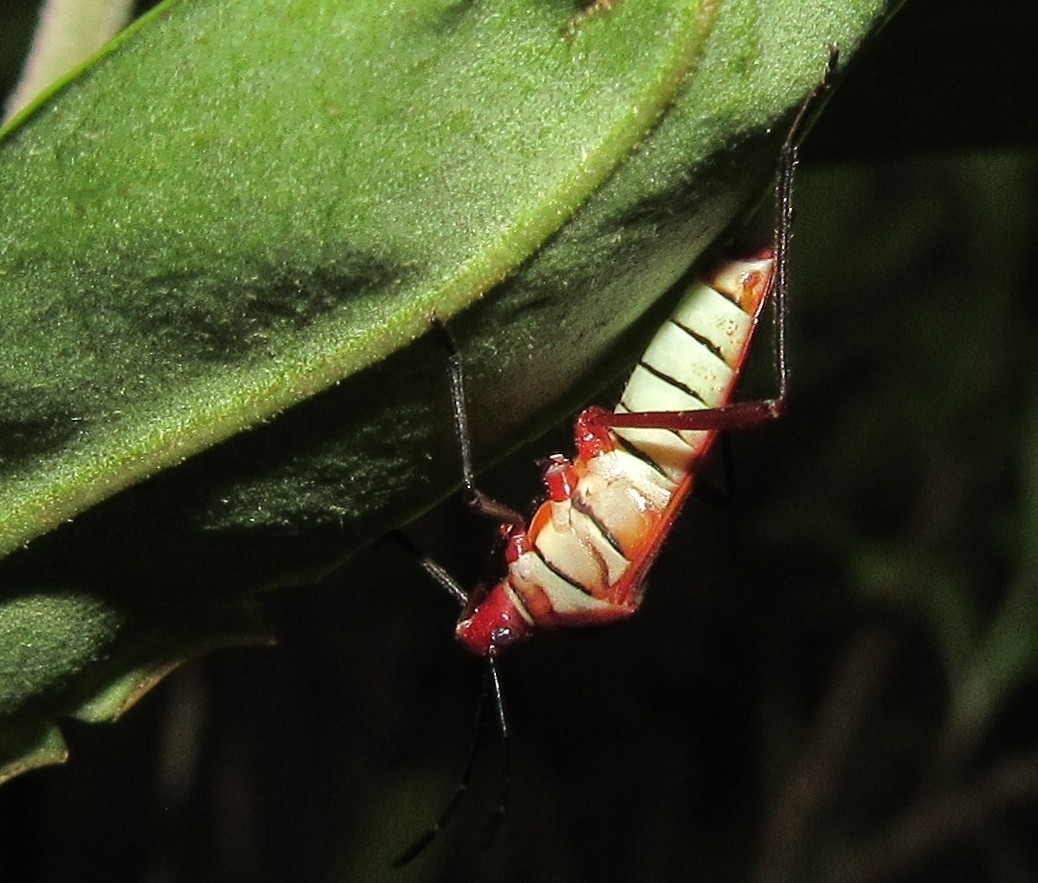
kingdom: Animalia
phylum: Arthropoda
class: Insecta
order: Hemiptera
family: Coreidae
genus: Hypselonotus
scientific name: Hypselonotus interruptus
